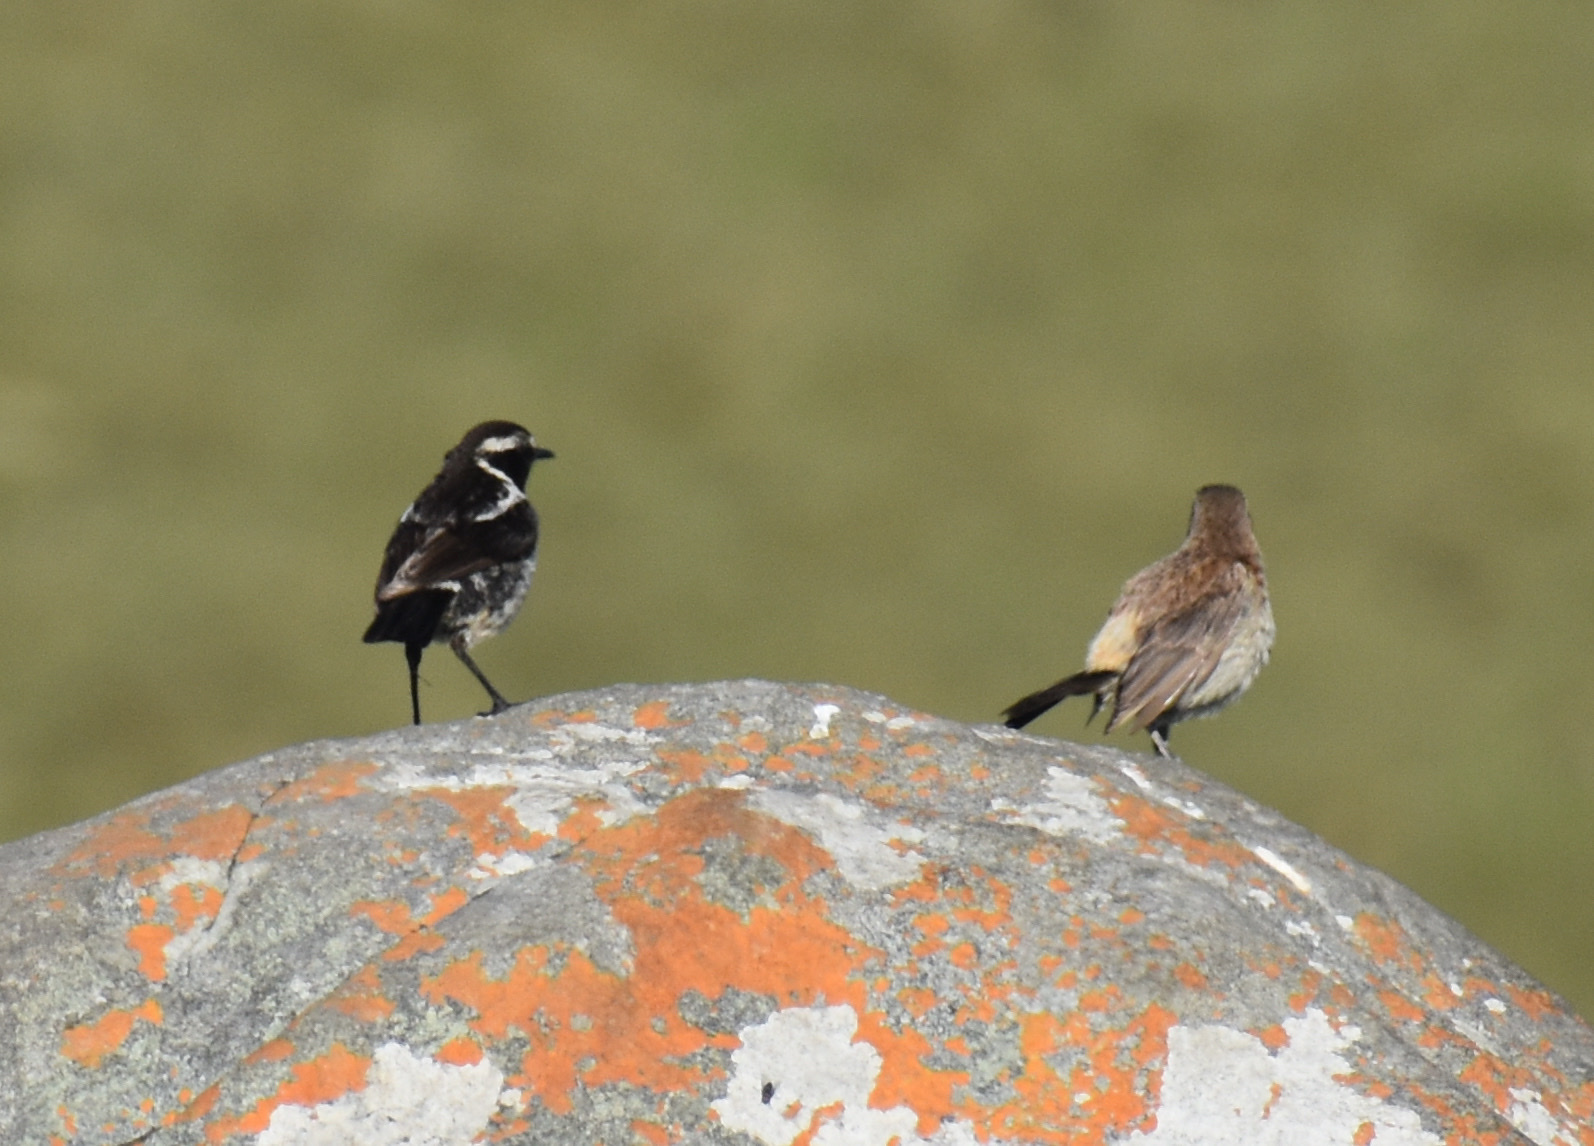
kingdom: Animalia
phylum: Chordata
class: Aves
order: Passeriformes
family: Muscicapidae
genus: Campicoloides
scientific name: Campicoloides bifasciatus
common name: Buff-streaked chat
